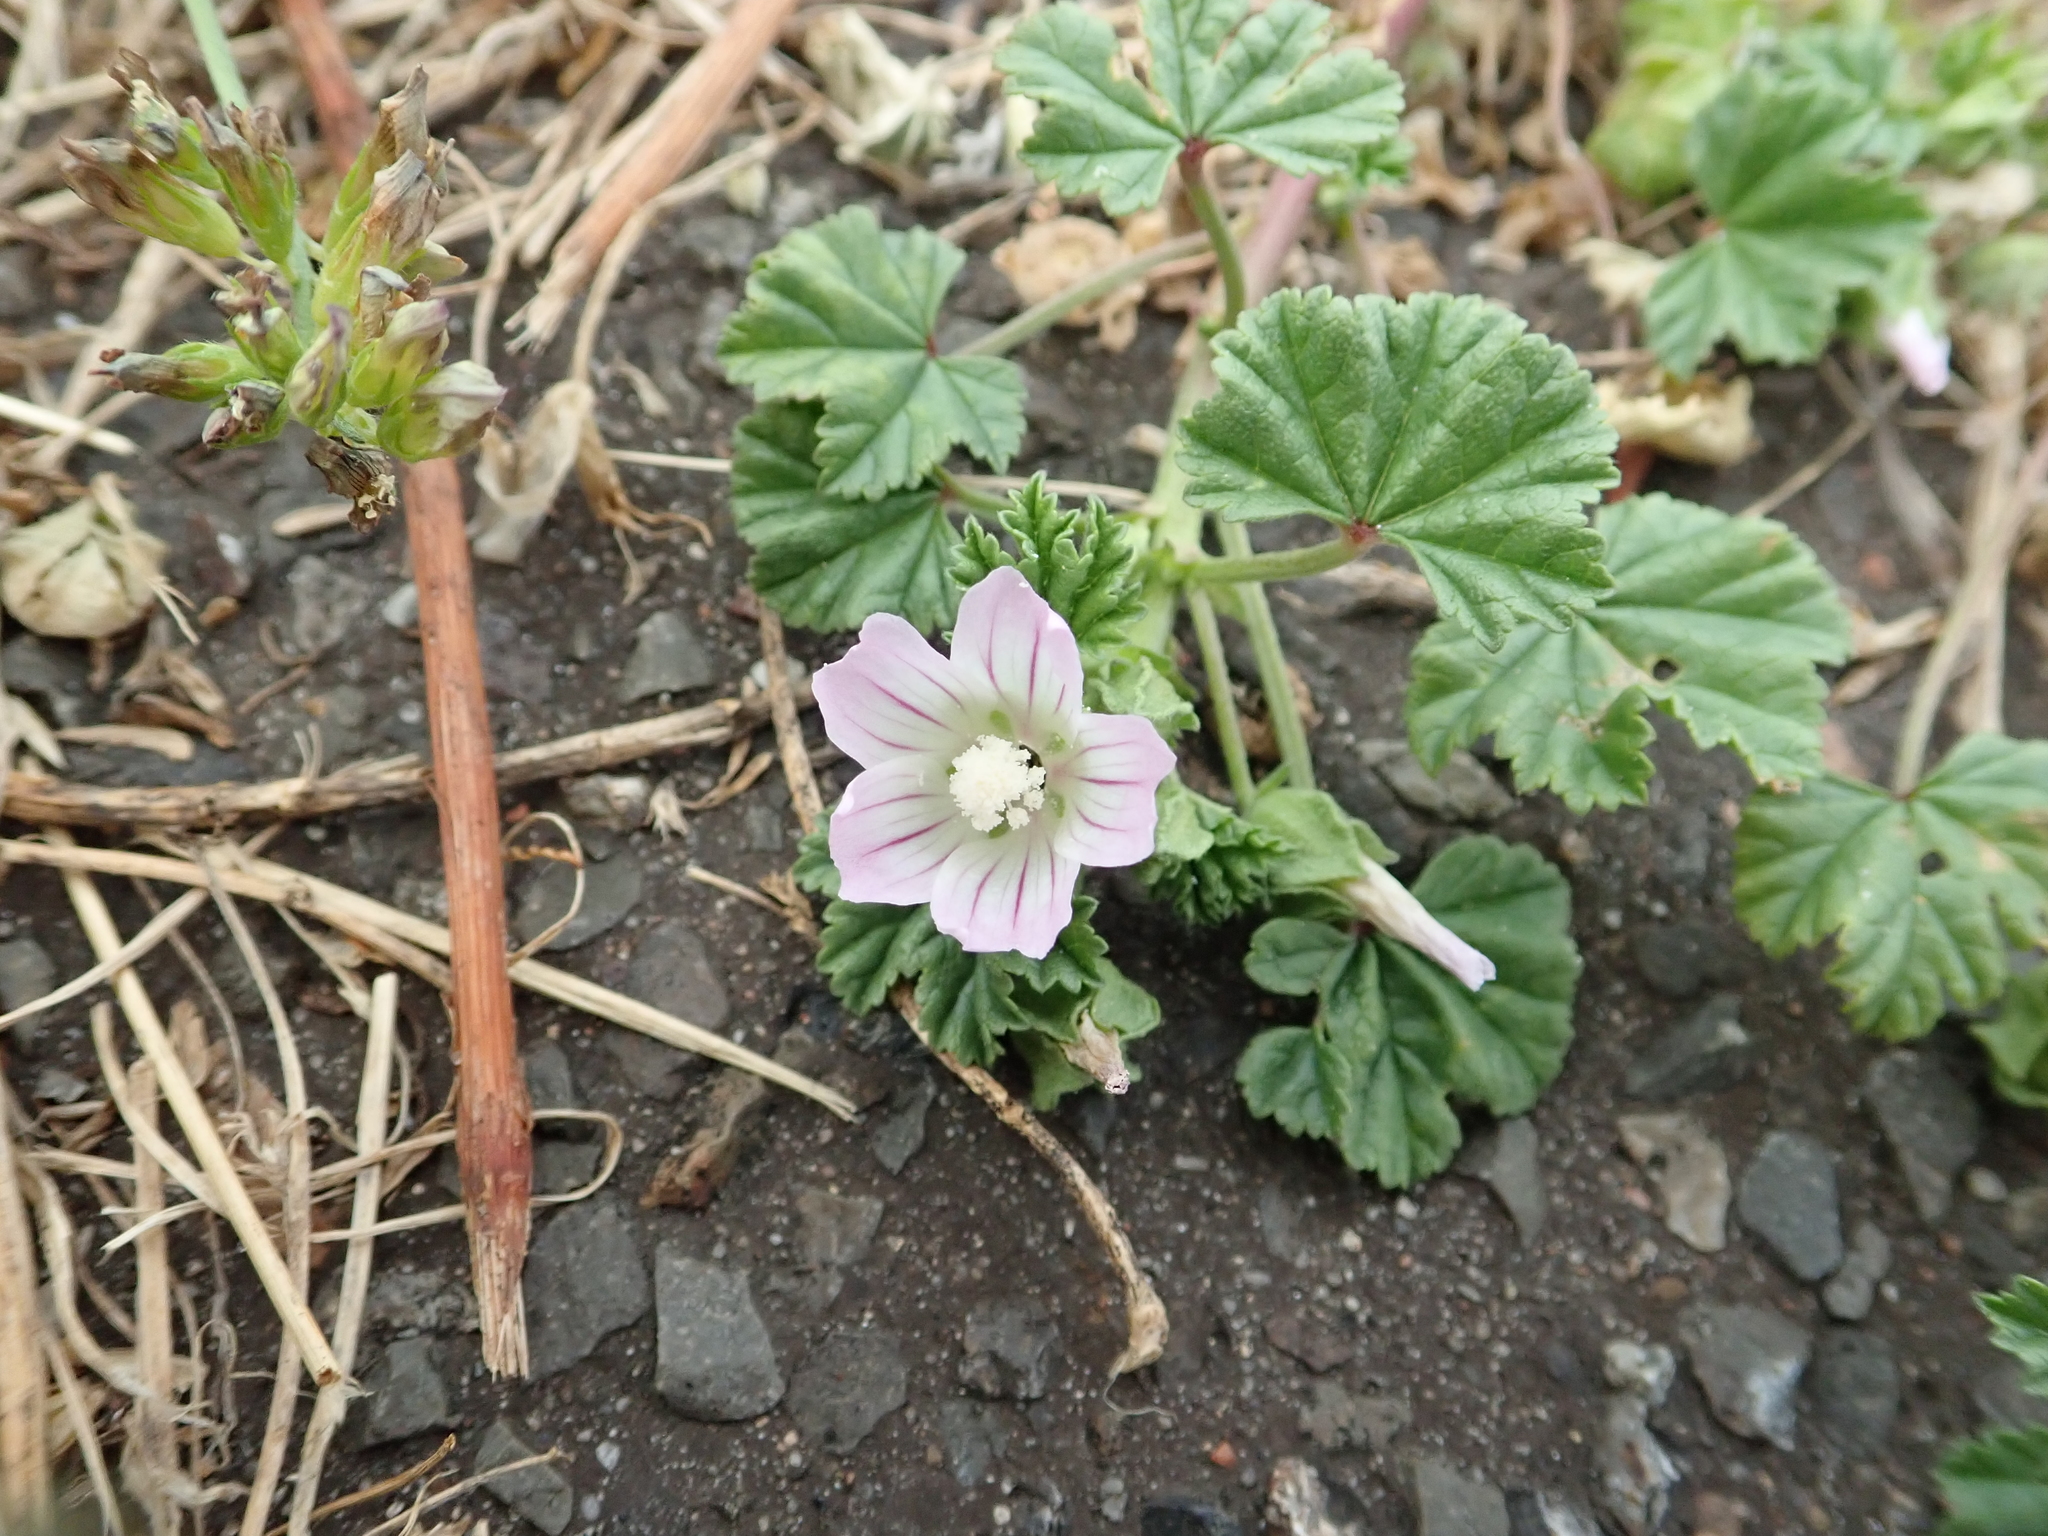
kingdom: Plantae
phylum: Tracheophyta
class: Magnoliopsida
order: Malvales
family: Malvaceae
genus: Malva
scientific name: Malva neglecta
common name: Common mallow
